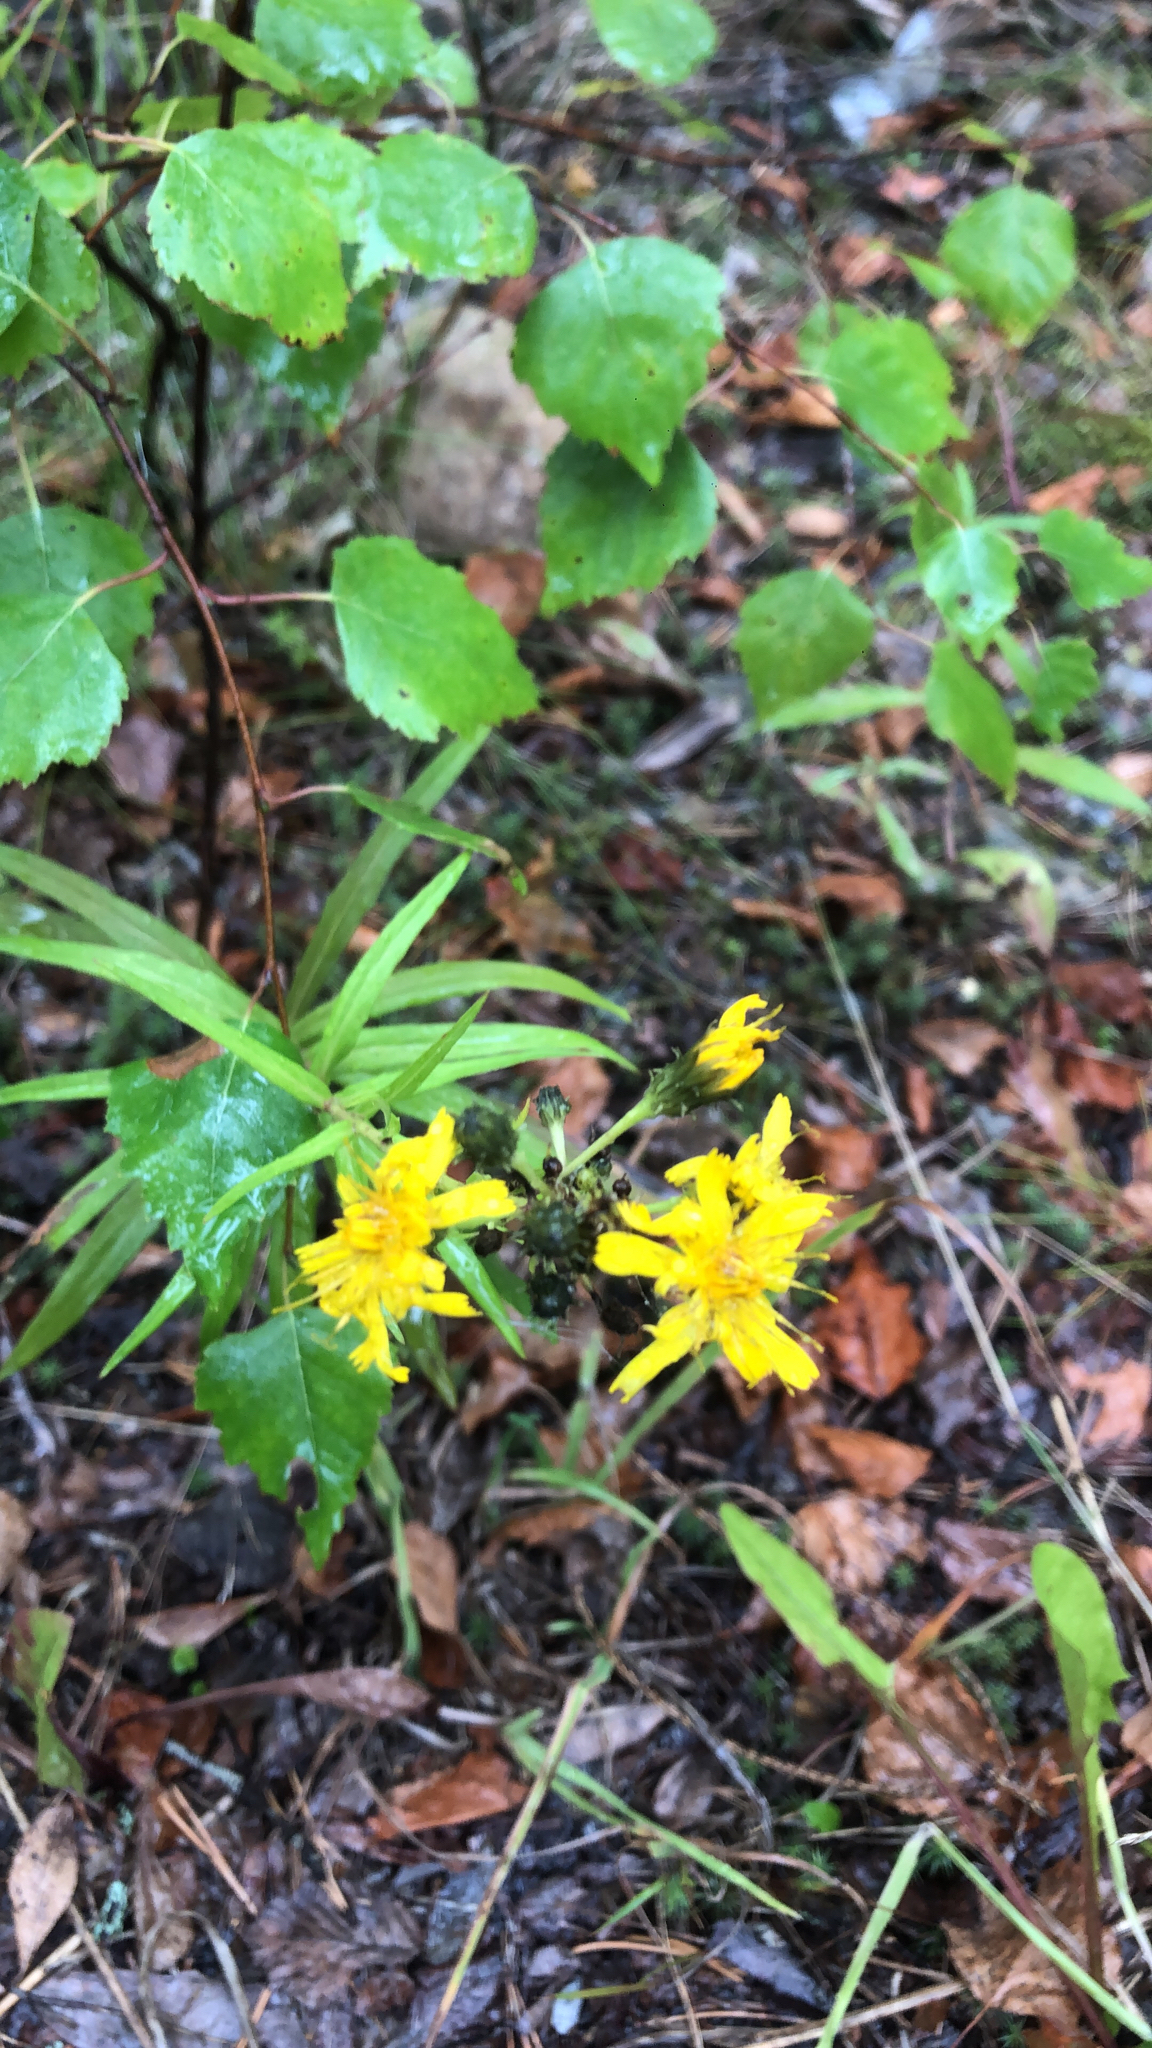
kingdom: Plantae
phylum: Tracheophyta
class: Magnoliopsida
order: Asterales
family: Asteraceae
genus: Hieracium
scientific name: Hieracium umbellatum
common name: Northern hawkweed
